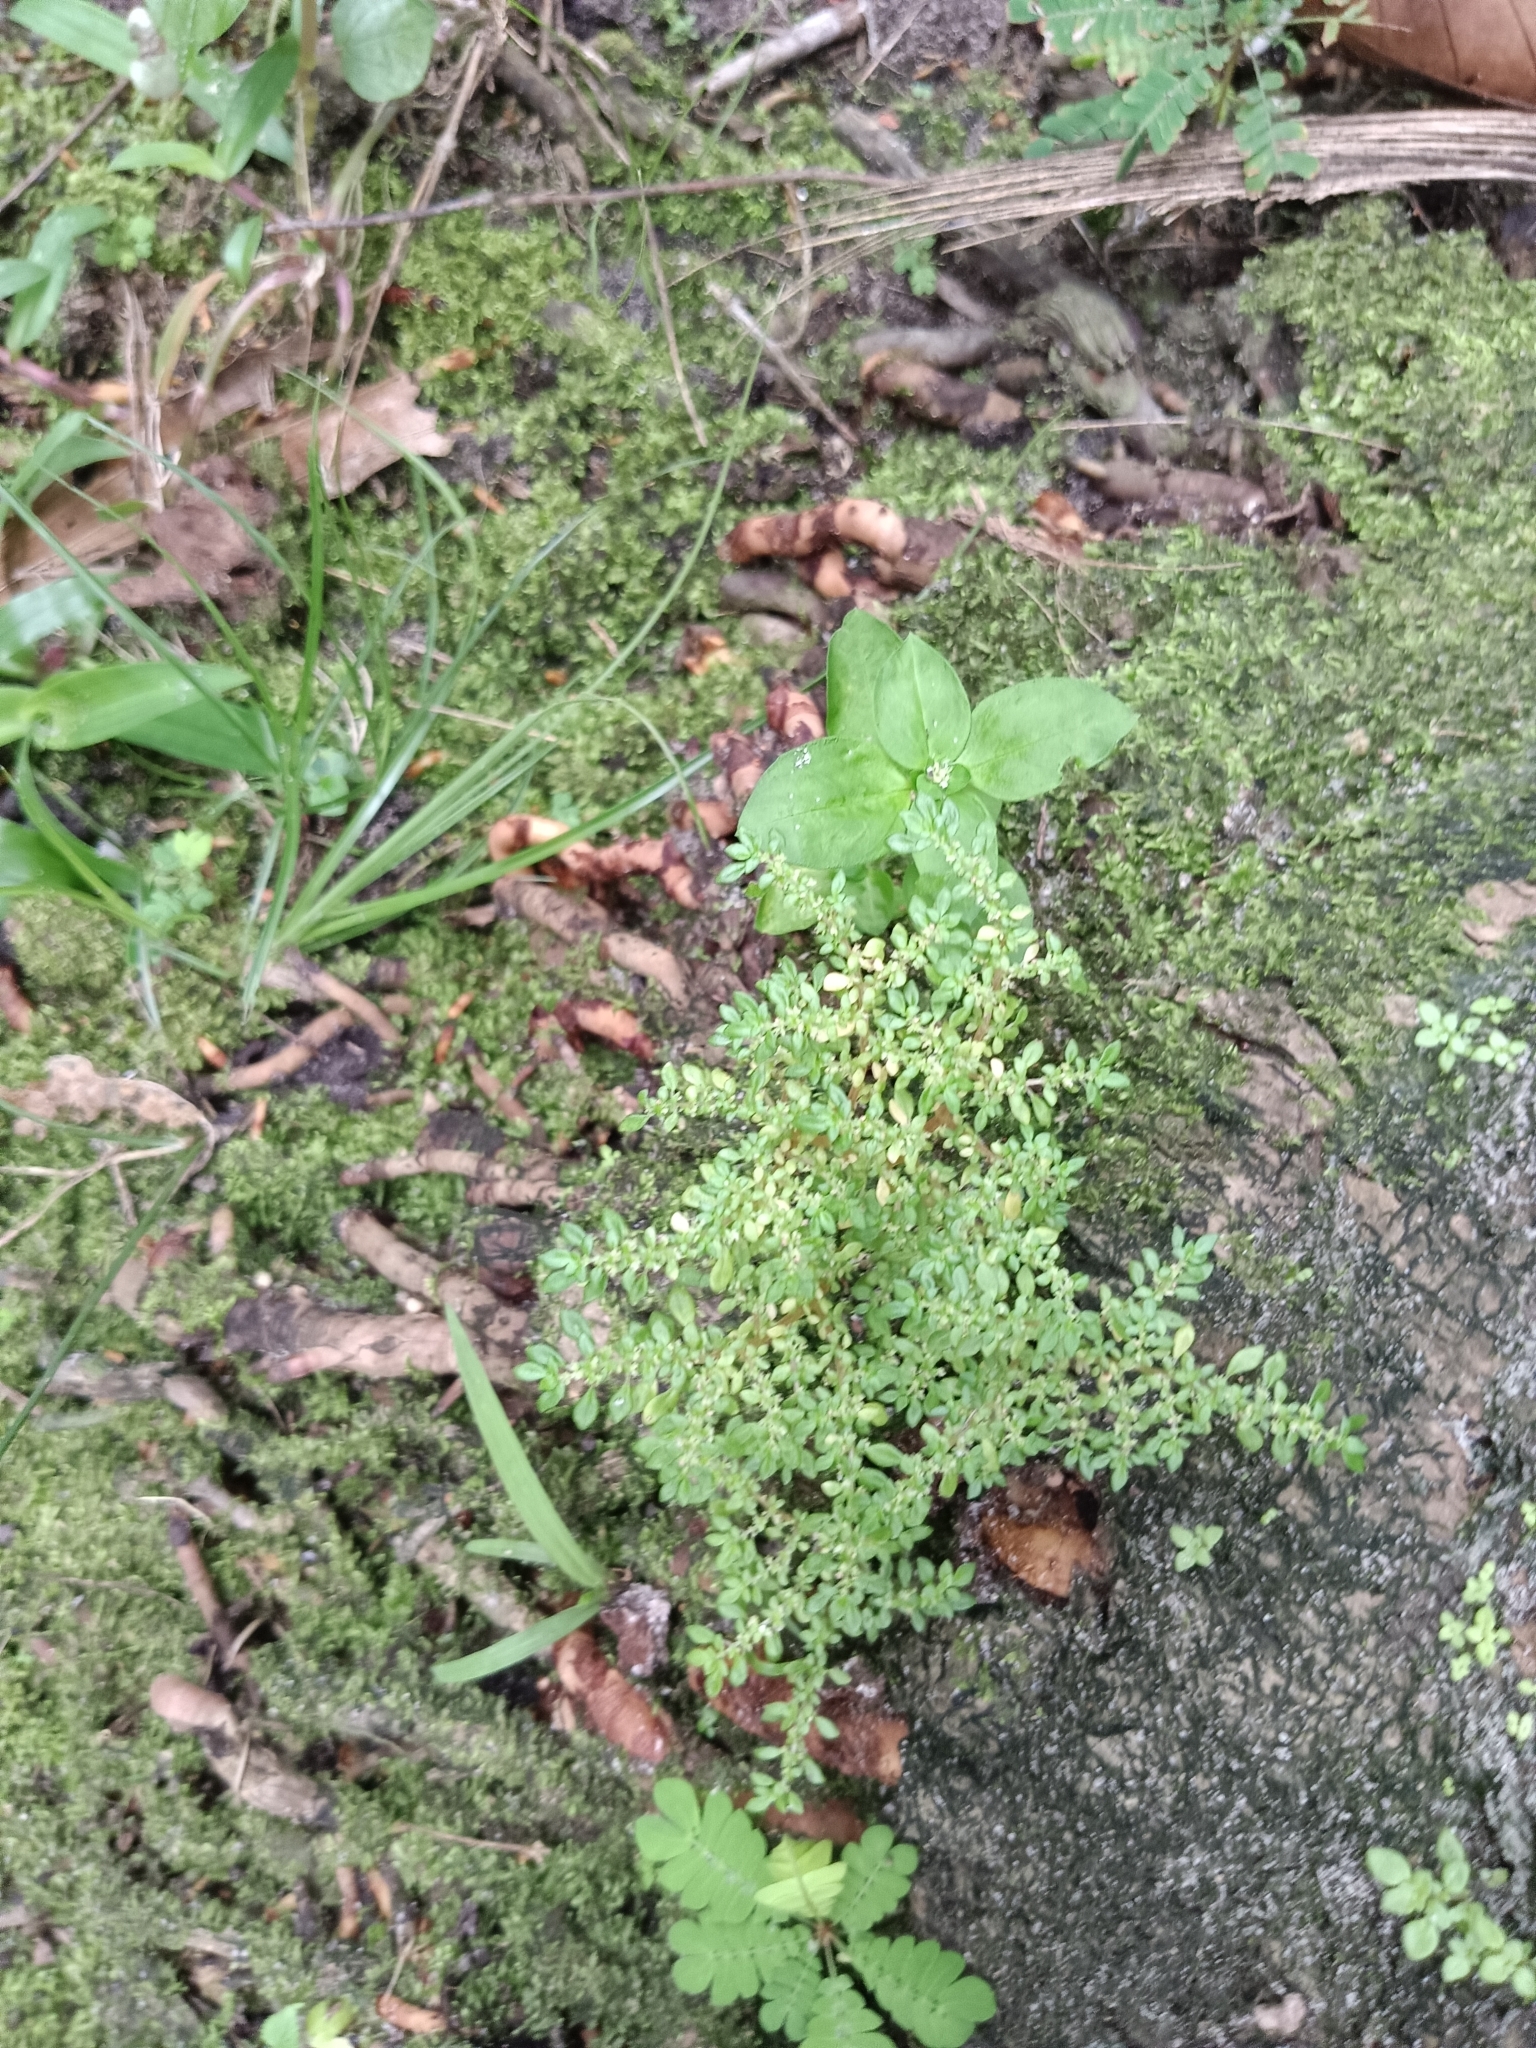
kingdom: Plantae
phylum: Tracheophyta
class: Magnoliopsida
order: Rosales
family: Urticaceae
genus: Pilea
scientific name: Pilea microphylla
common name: Artillery-plant
